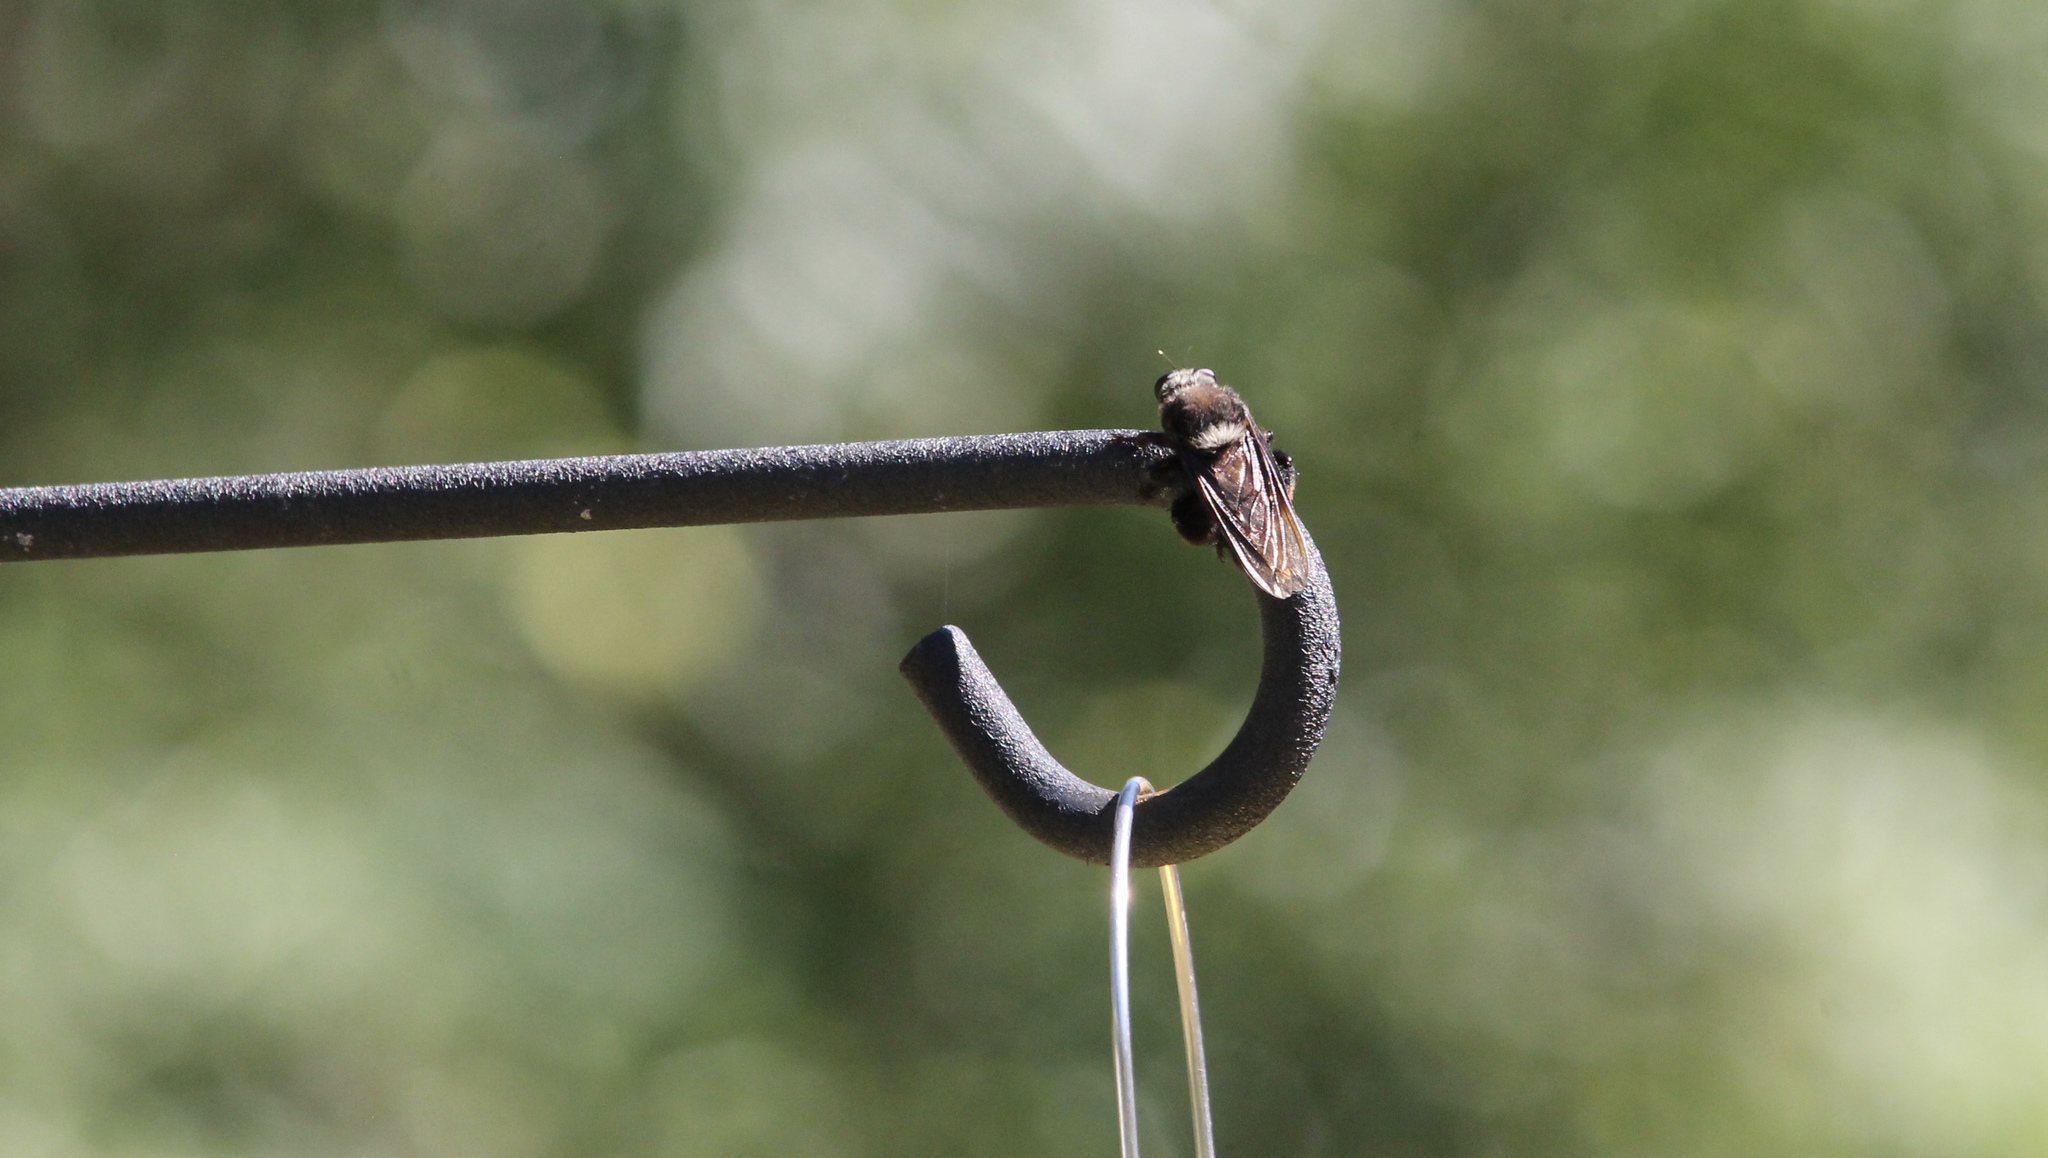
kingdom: Animalia
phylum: Arthropoda
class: Insecta
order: Diptera
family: Asilidae
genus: Mallophora
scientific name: Mallophora leschenaultii
